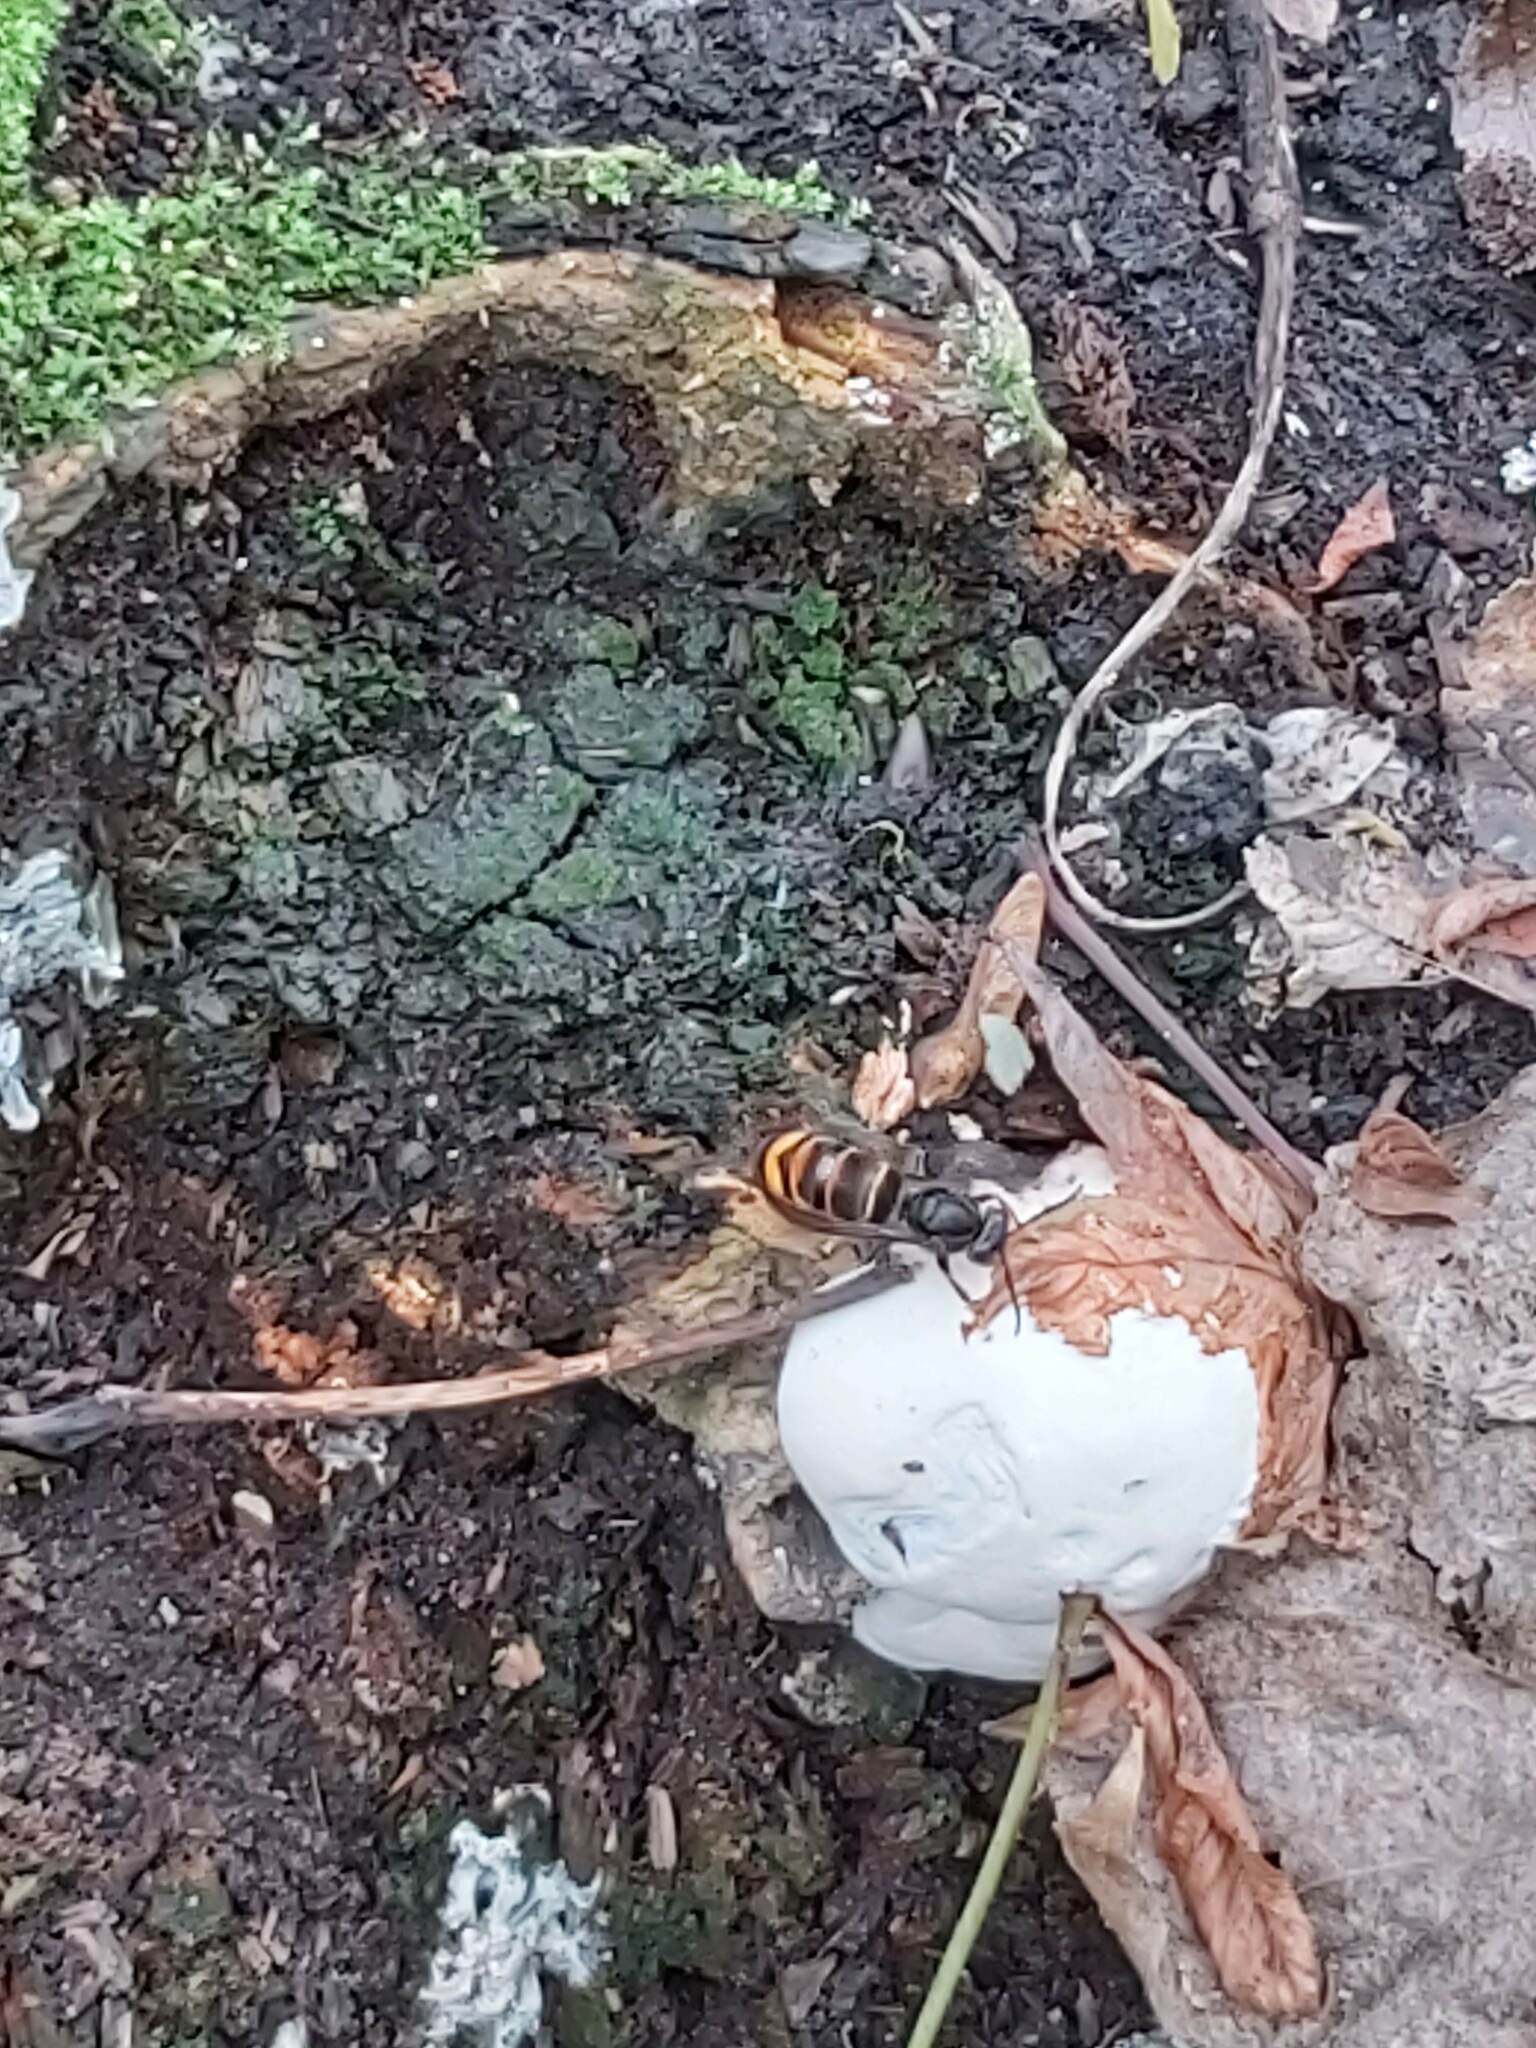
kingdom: Animalia
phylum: Arthropoda
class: Insecta
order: Hymenoptera
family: Vespidae
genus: Vespa
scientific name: Vespa velutina
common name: Asian hornet
